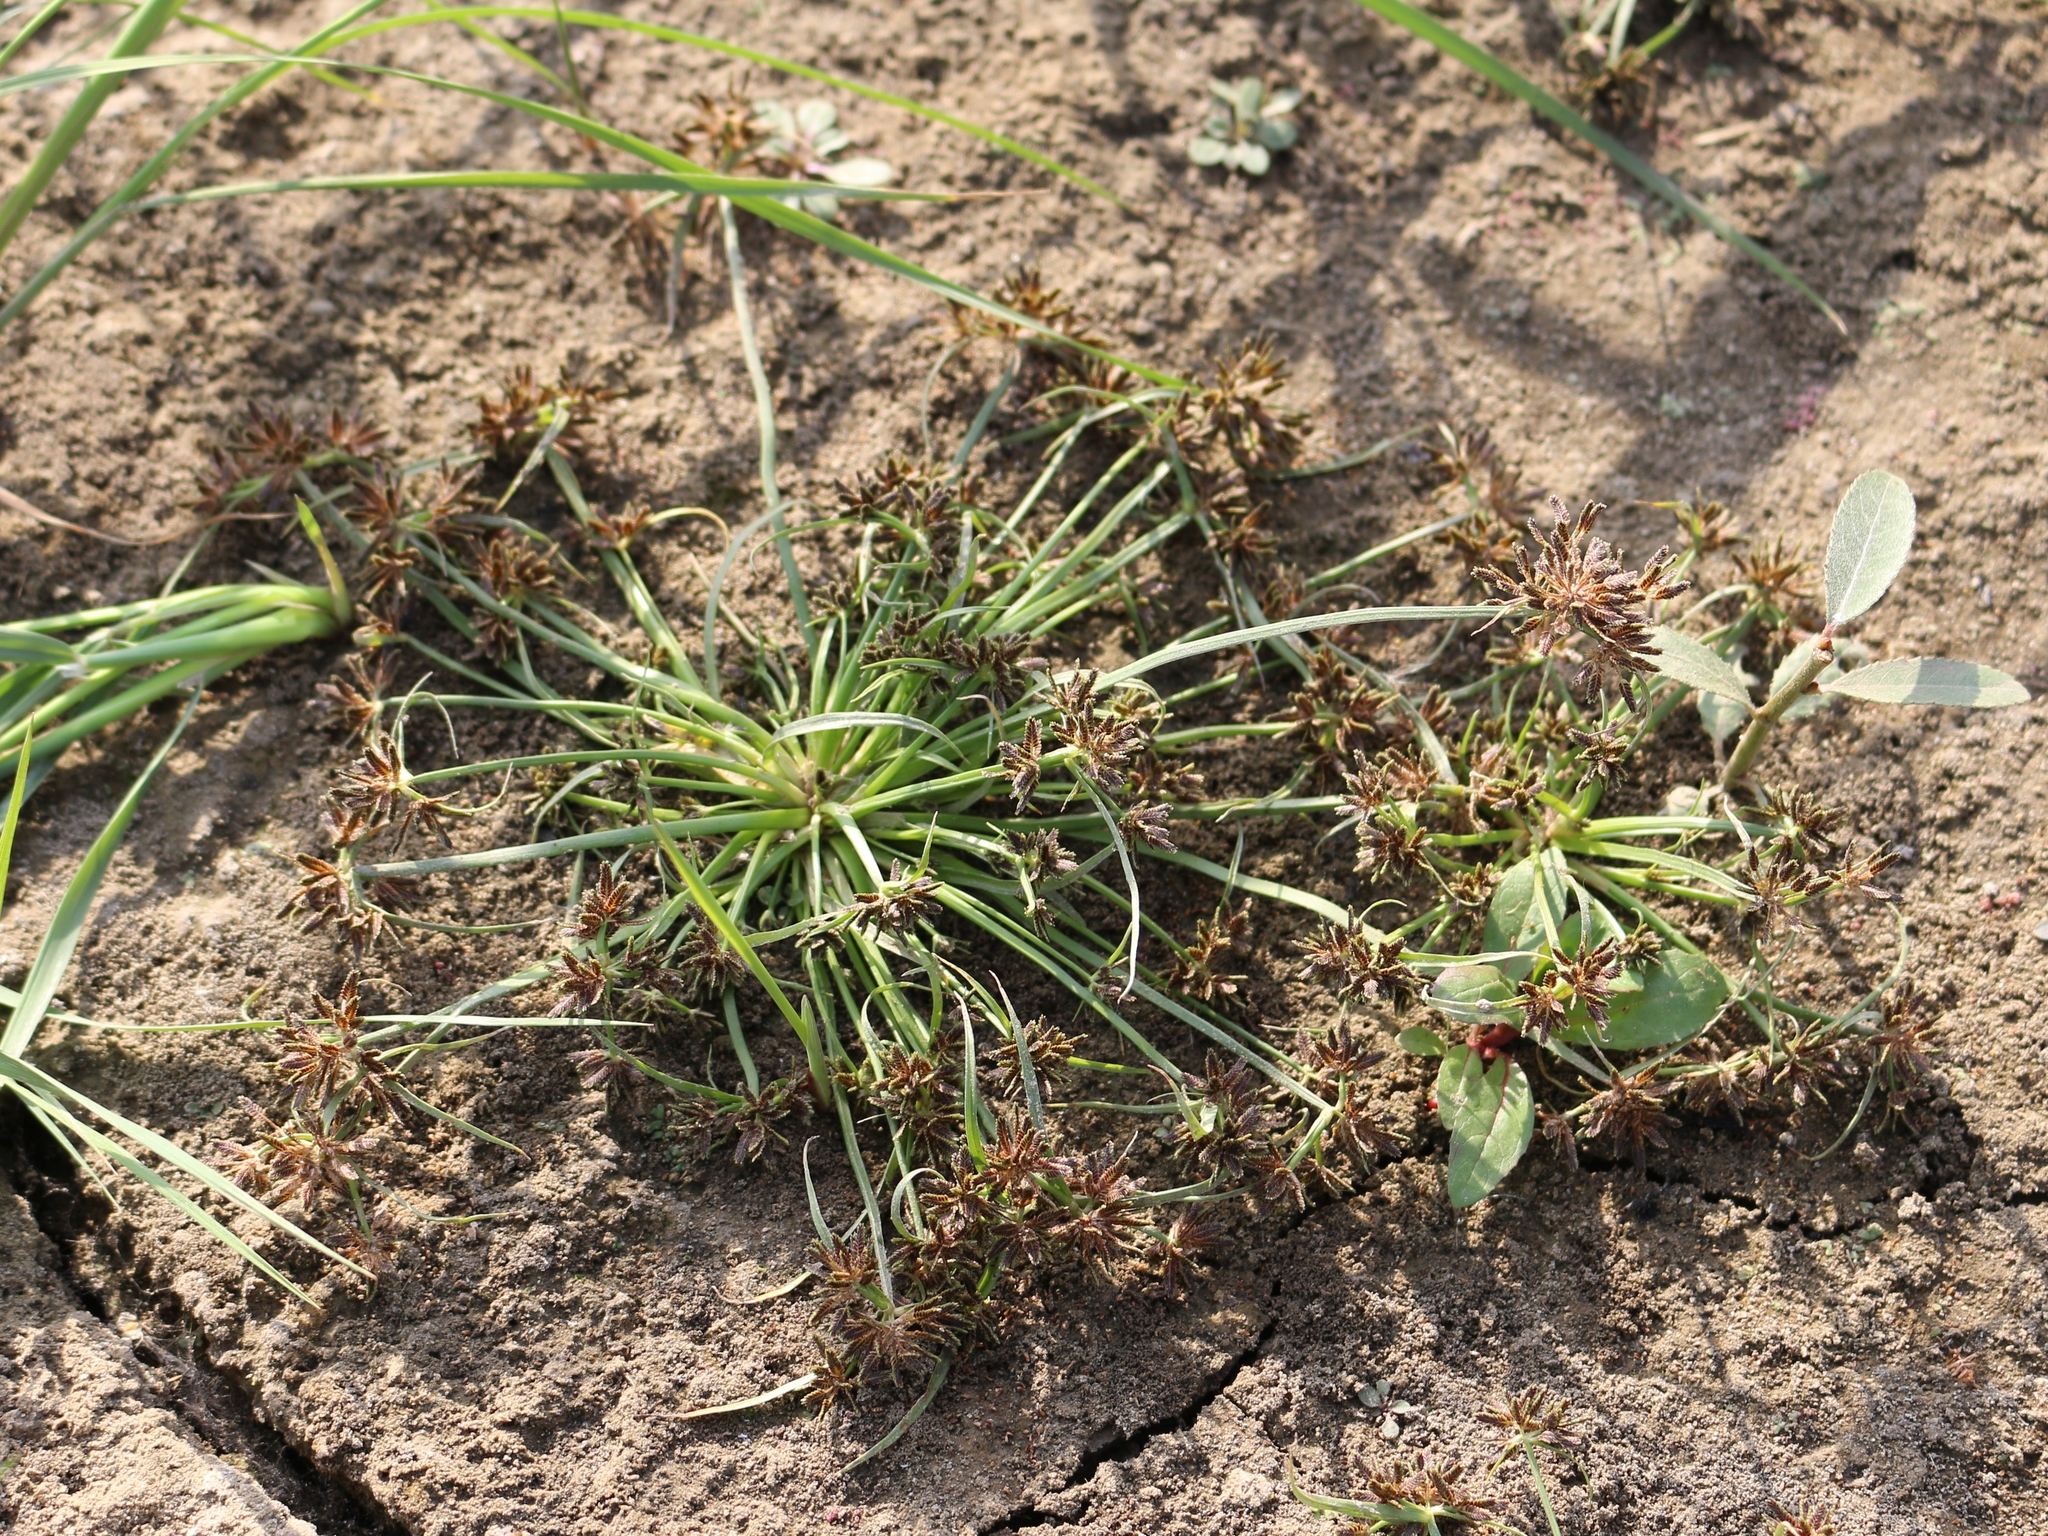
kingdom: Plantae
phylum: Tracheophyta
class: Liliopsida
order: Poales
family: Cyperaceae
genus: Cyperus
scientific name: Cyperus fuscus
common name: Brown galingale
